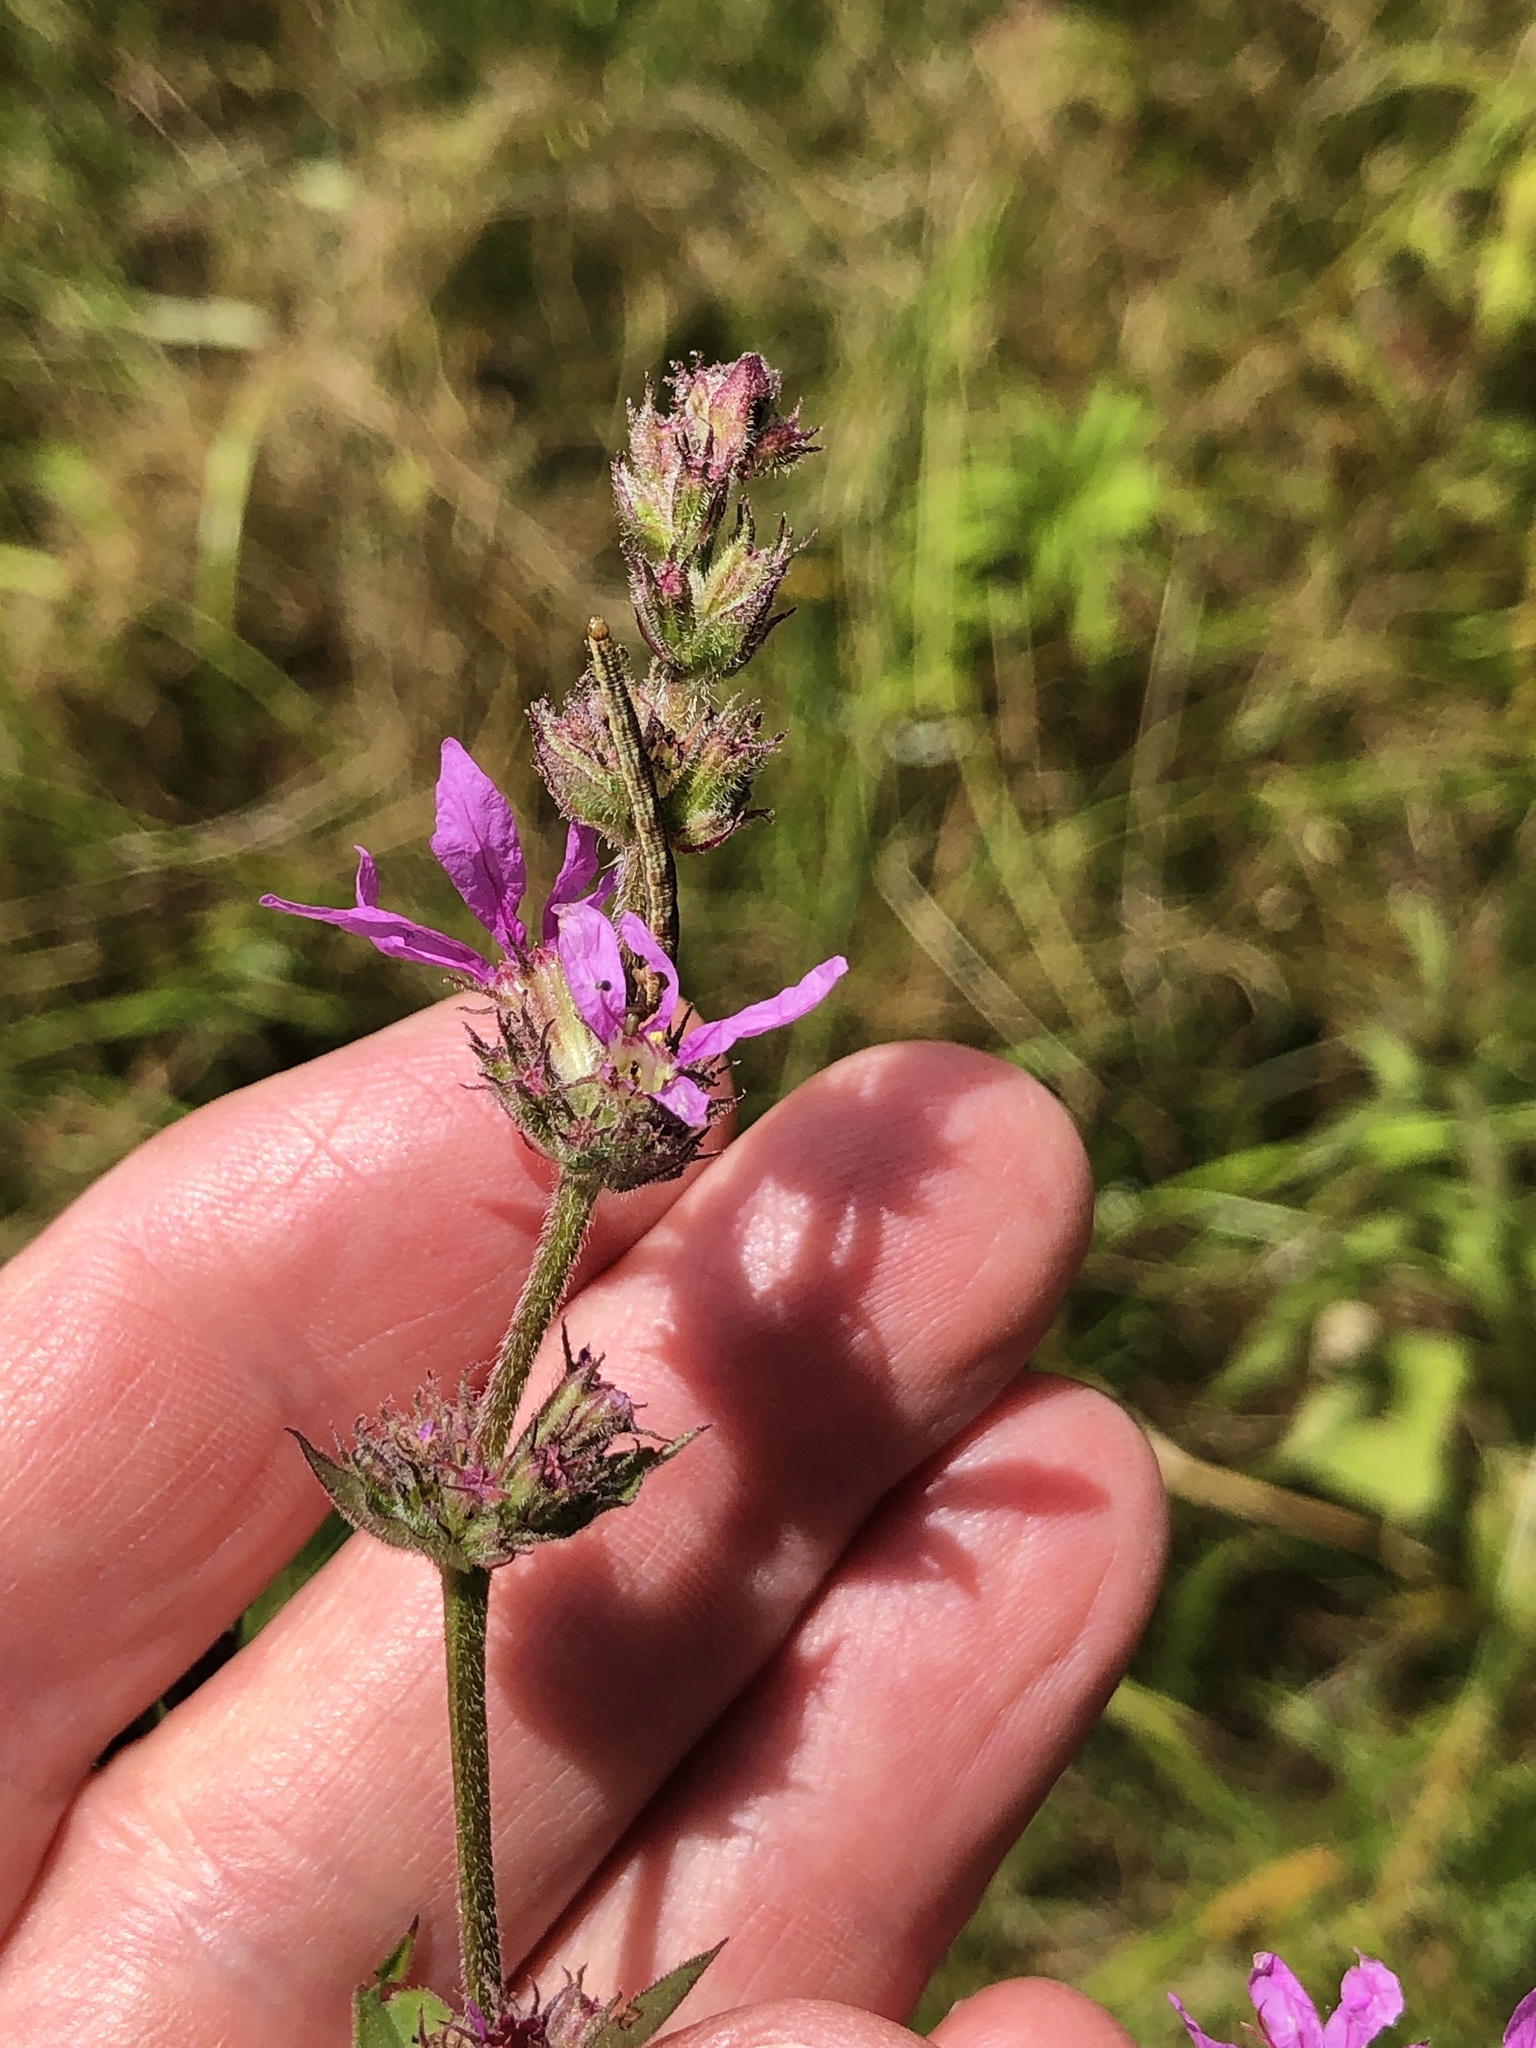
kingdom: Plantae
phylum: Tracheophyta
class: Magnoliopsida
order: Myrtales
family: Lythraceae
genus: Lythrum
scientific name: Lythrum salicaria
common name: Purple loosestrife
